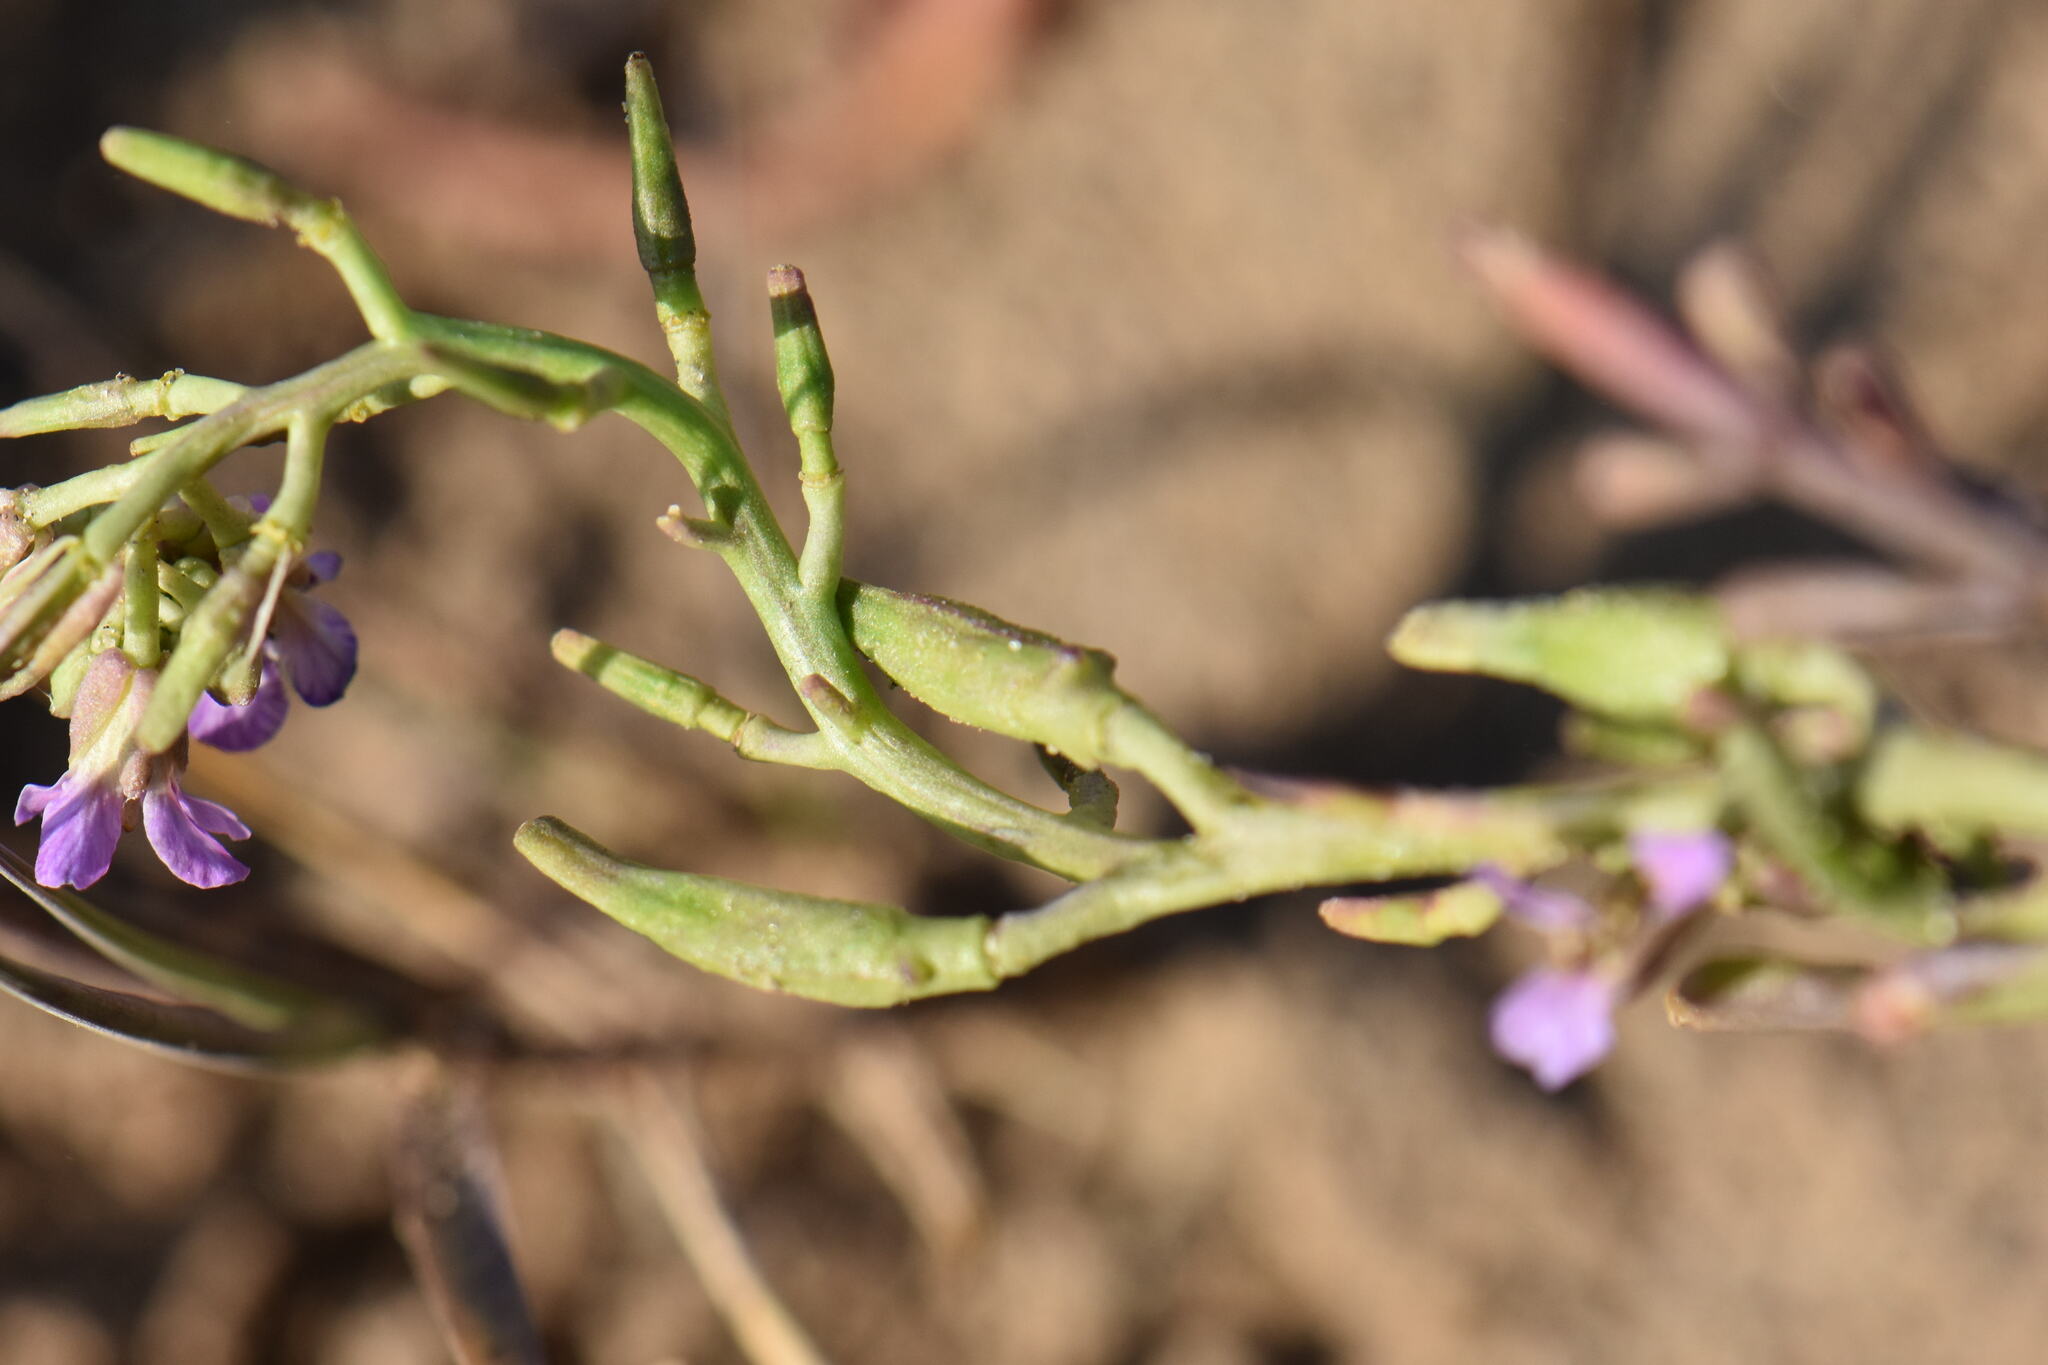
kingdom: Plantae
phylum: Tracheophyta
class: Magnoliopsida
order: Brassicales
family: Brassicaceae
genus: Cakile
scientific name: Cakile maritima
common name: Sea rocket
